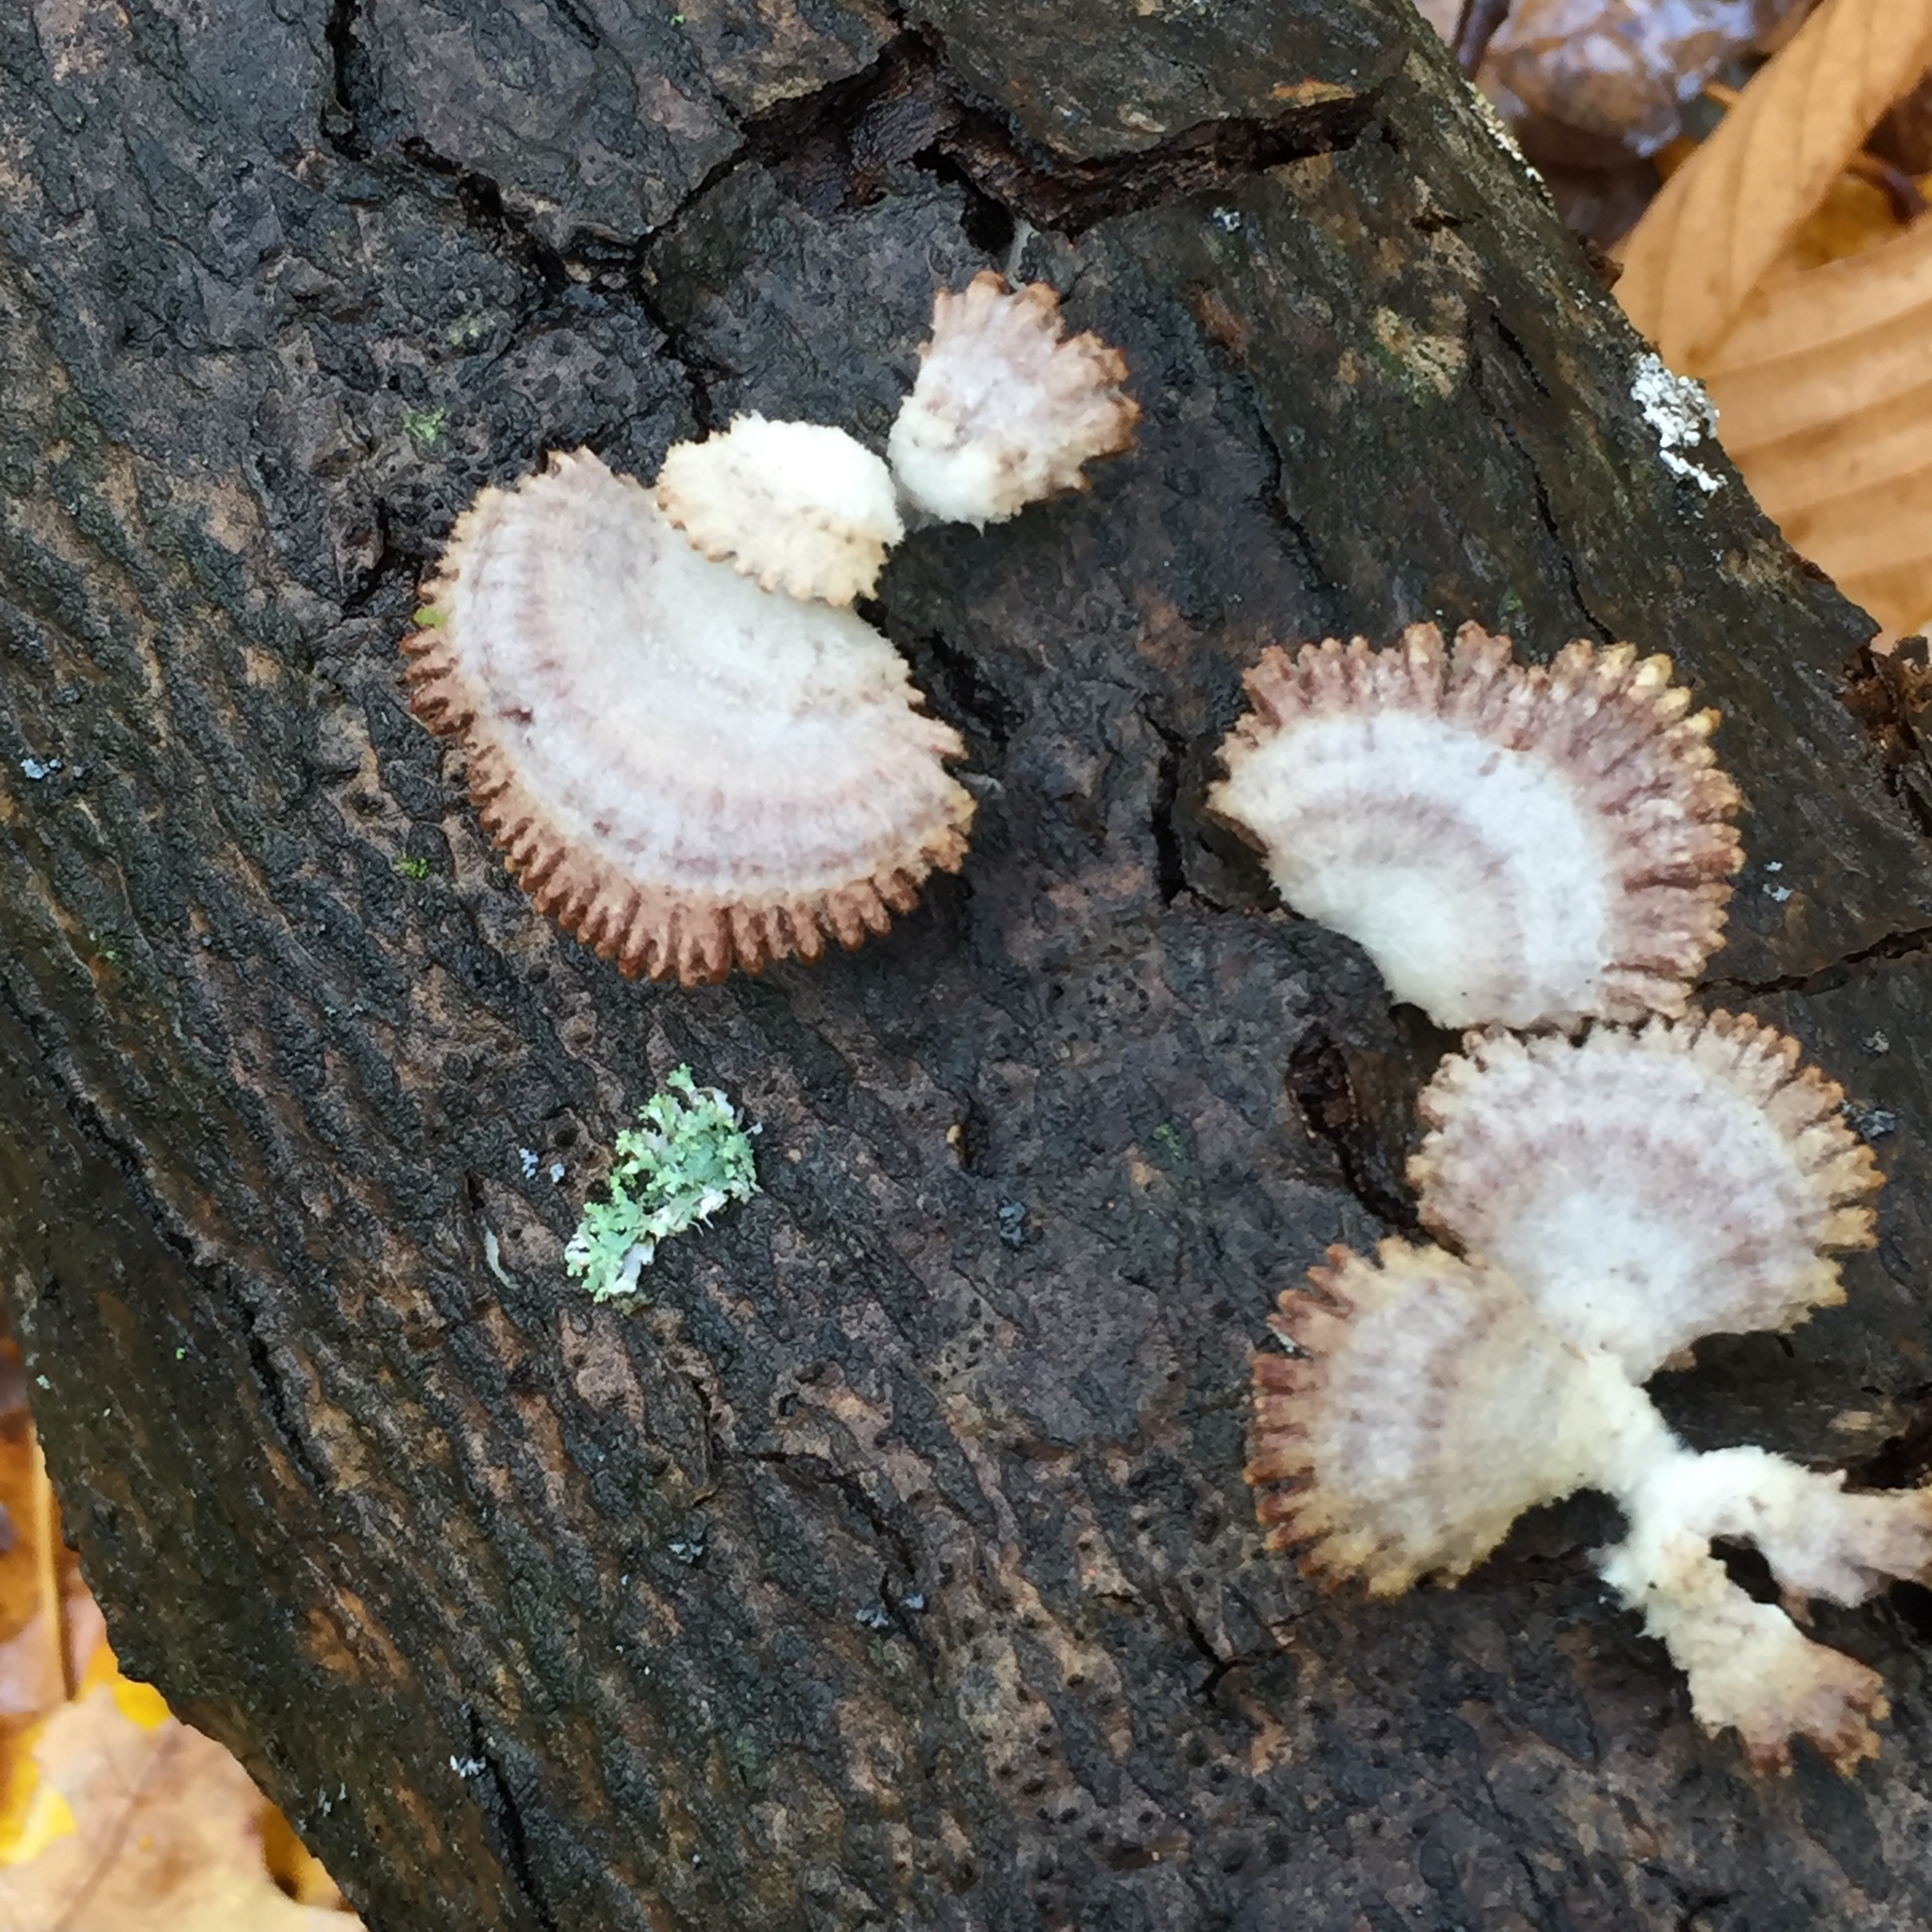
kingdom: Fungi
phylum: Basidiomycota
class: Agaricomycetes
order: Agaricales
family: Schizophyllaceae
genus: Schizophyllum
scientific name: Schizophyllum commune
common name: Common porecrust
